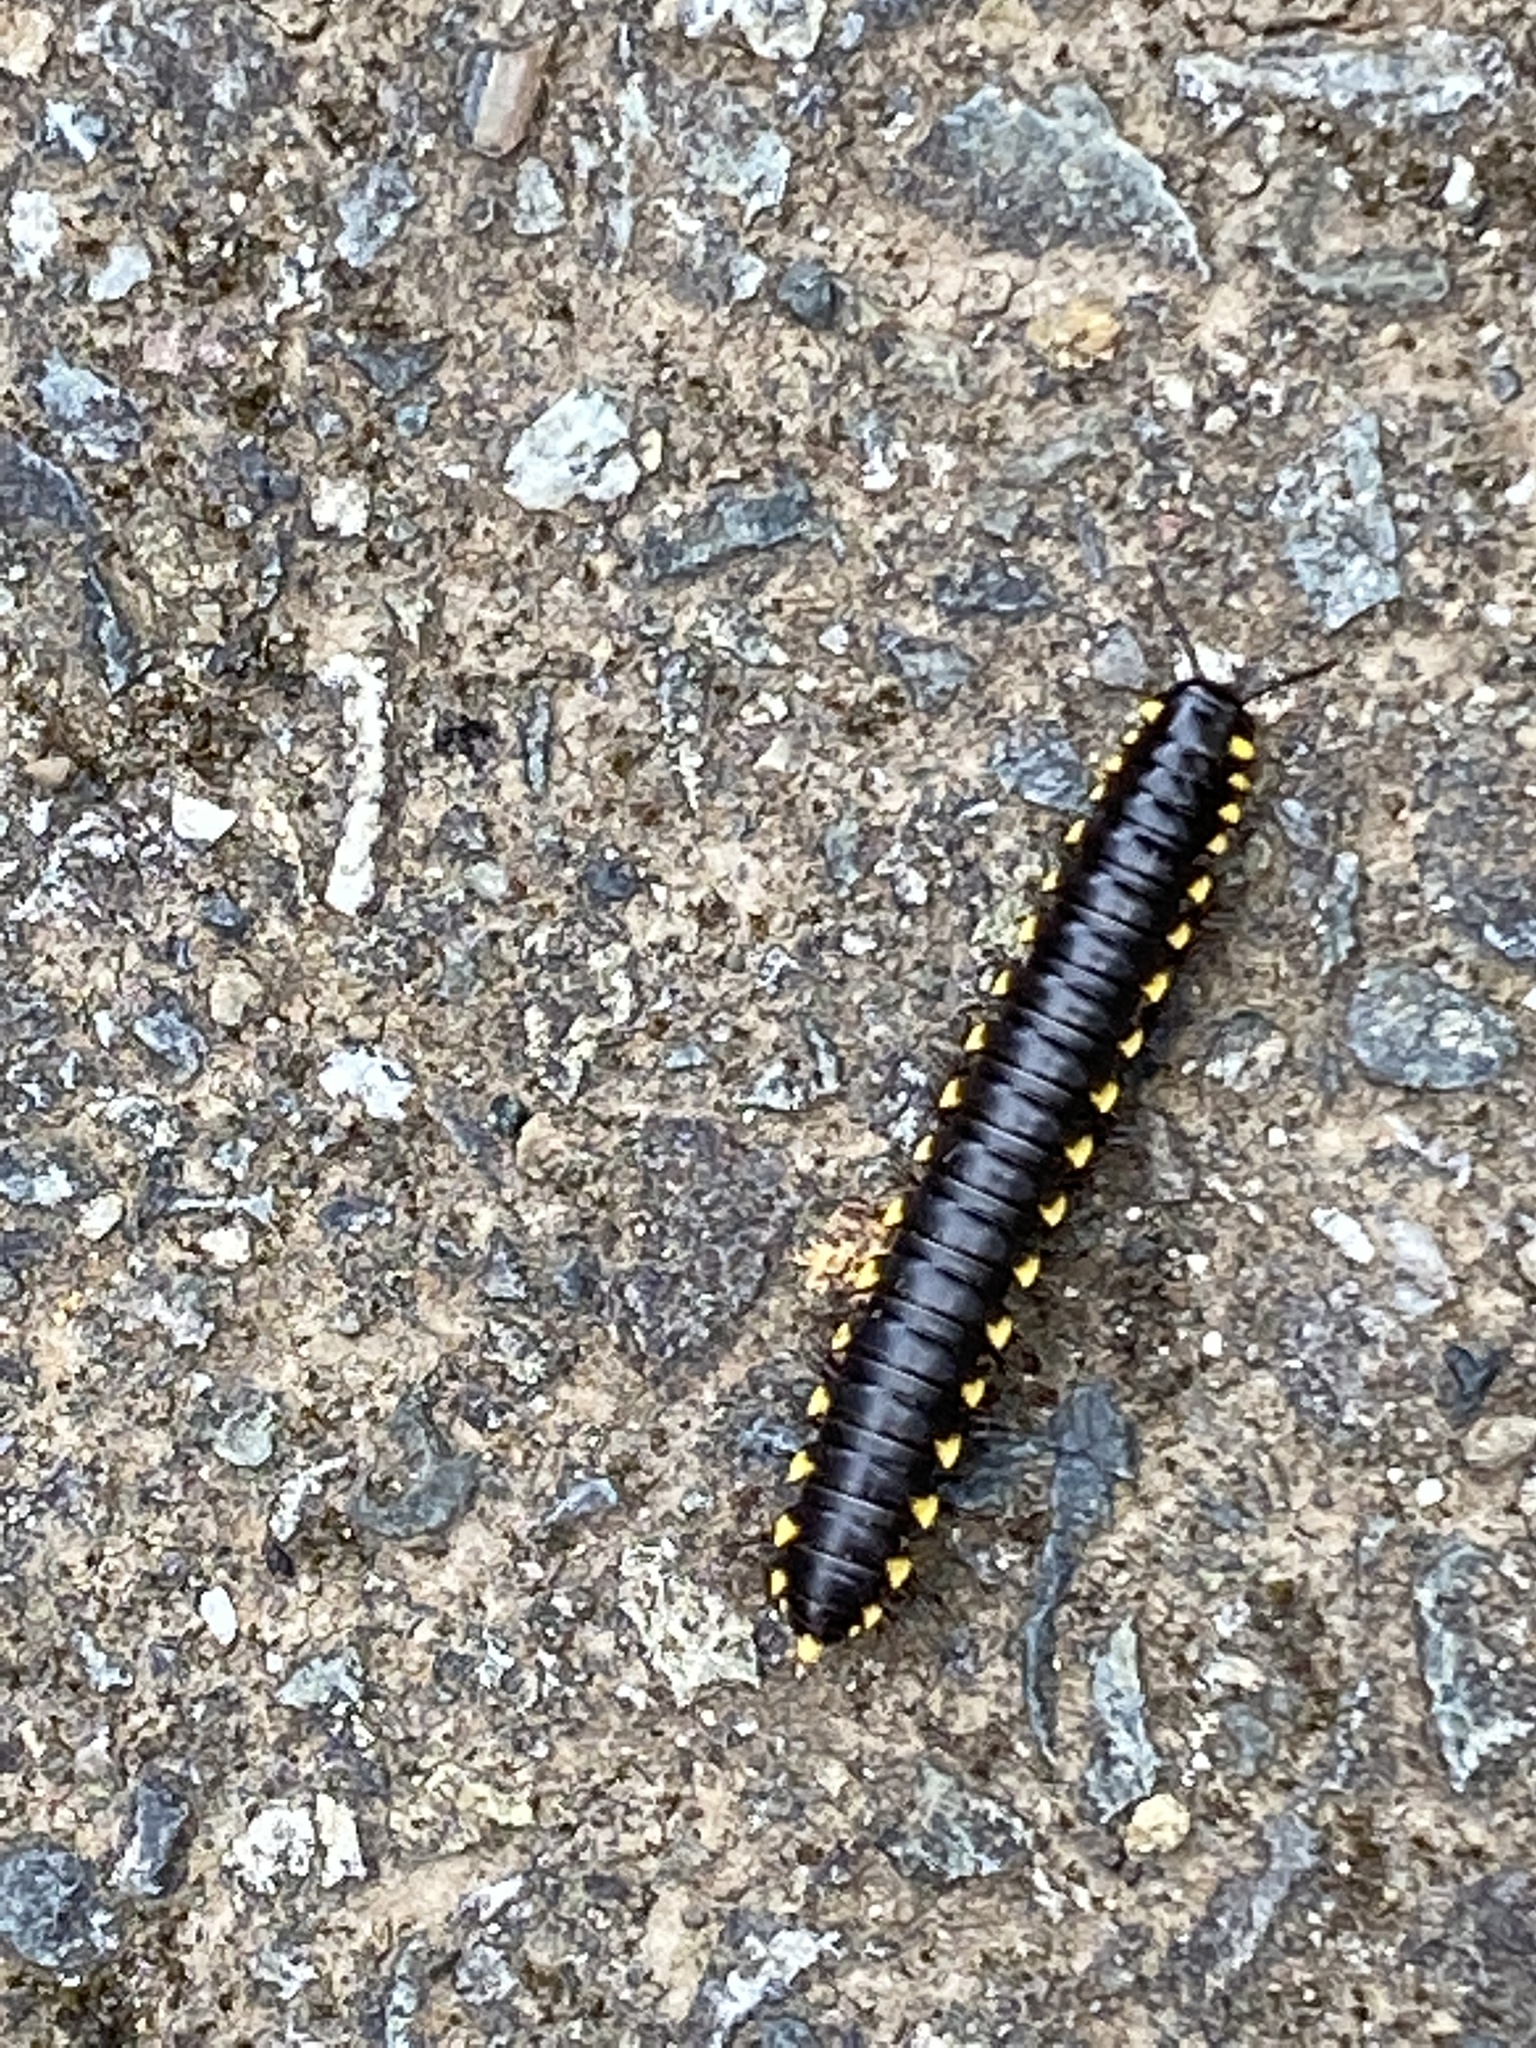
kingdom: Animalia
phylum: Arthropoda
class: Diplopoda
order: Polydesmida
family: Xystodesmidae
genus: Harpaphe
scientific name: Harpaphe haydeniana
